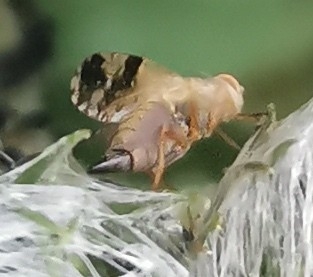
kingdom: Animalia
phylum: Arthropoda
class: Insecta
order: Diptera
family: Tephritidae
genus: Tephritis
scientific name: Tephritis bardanae
